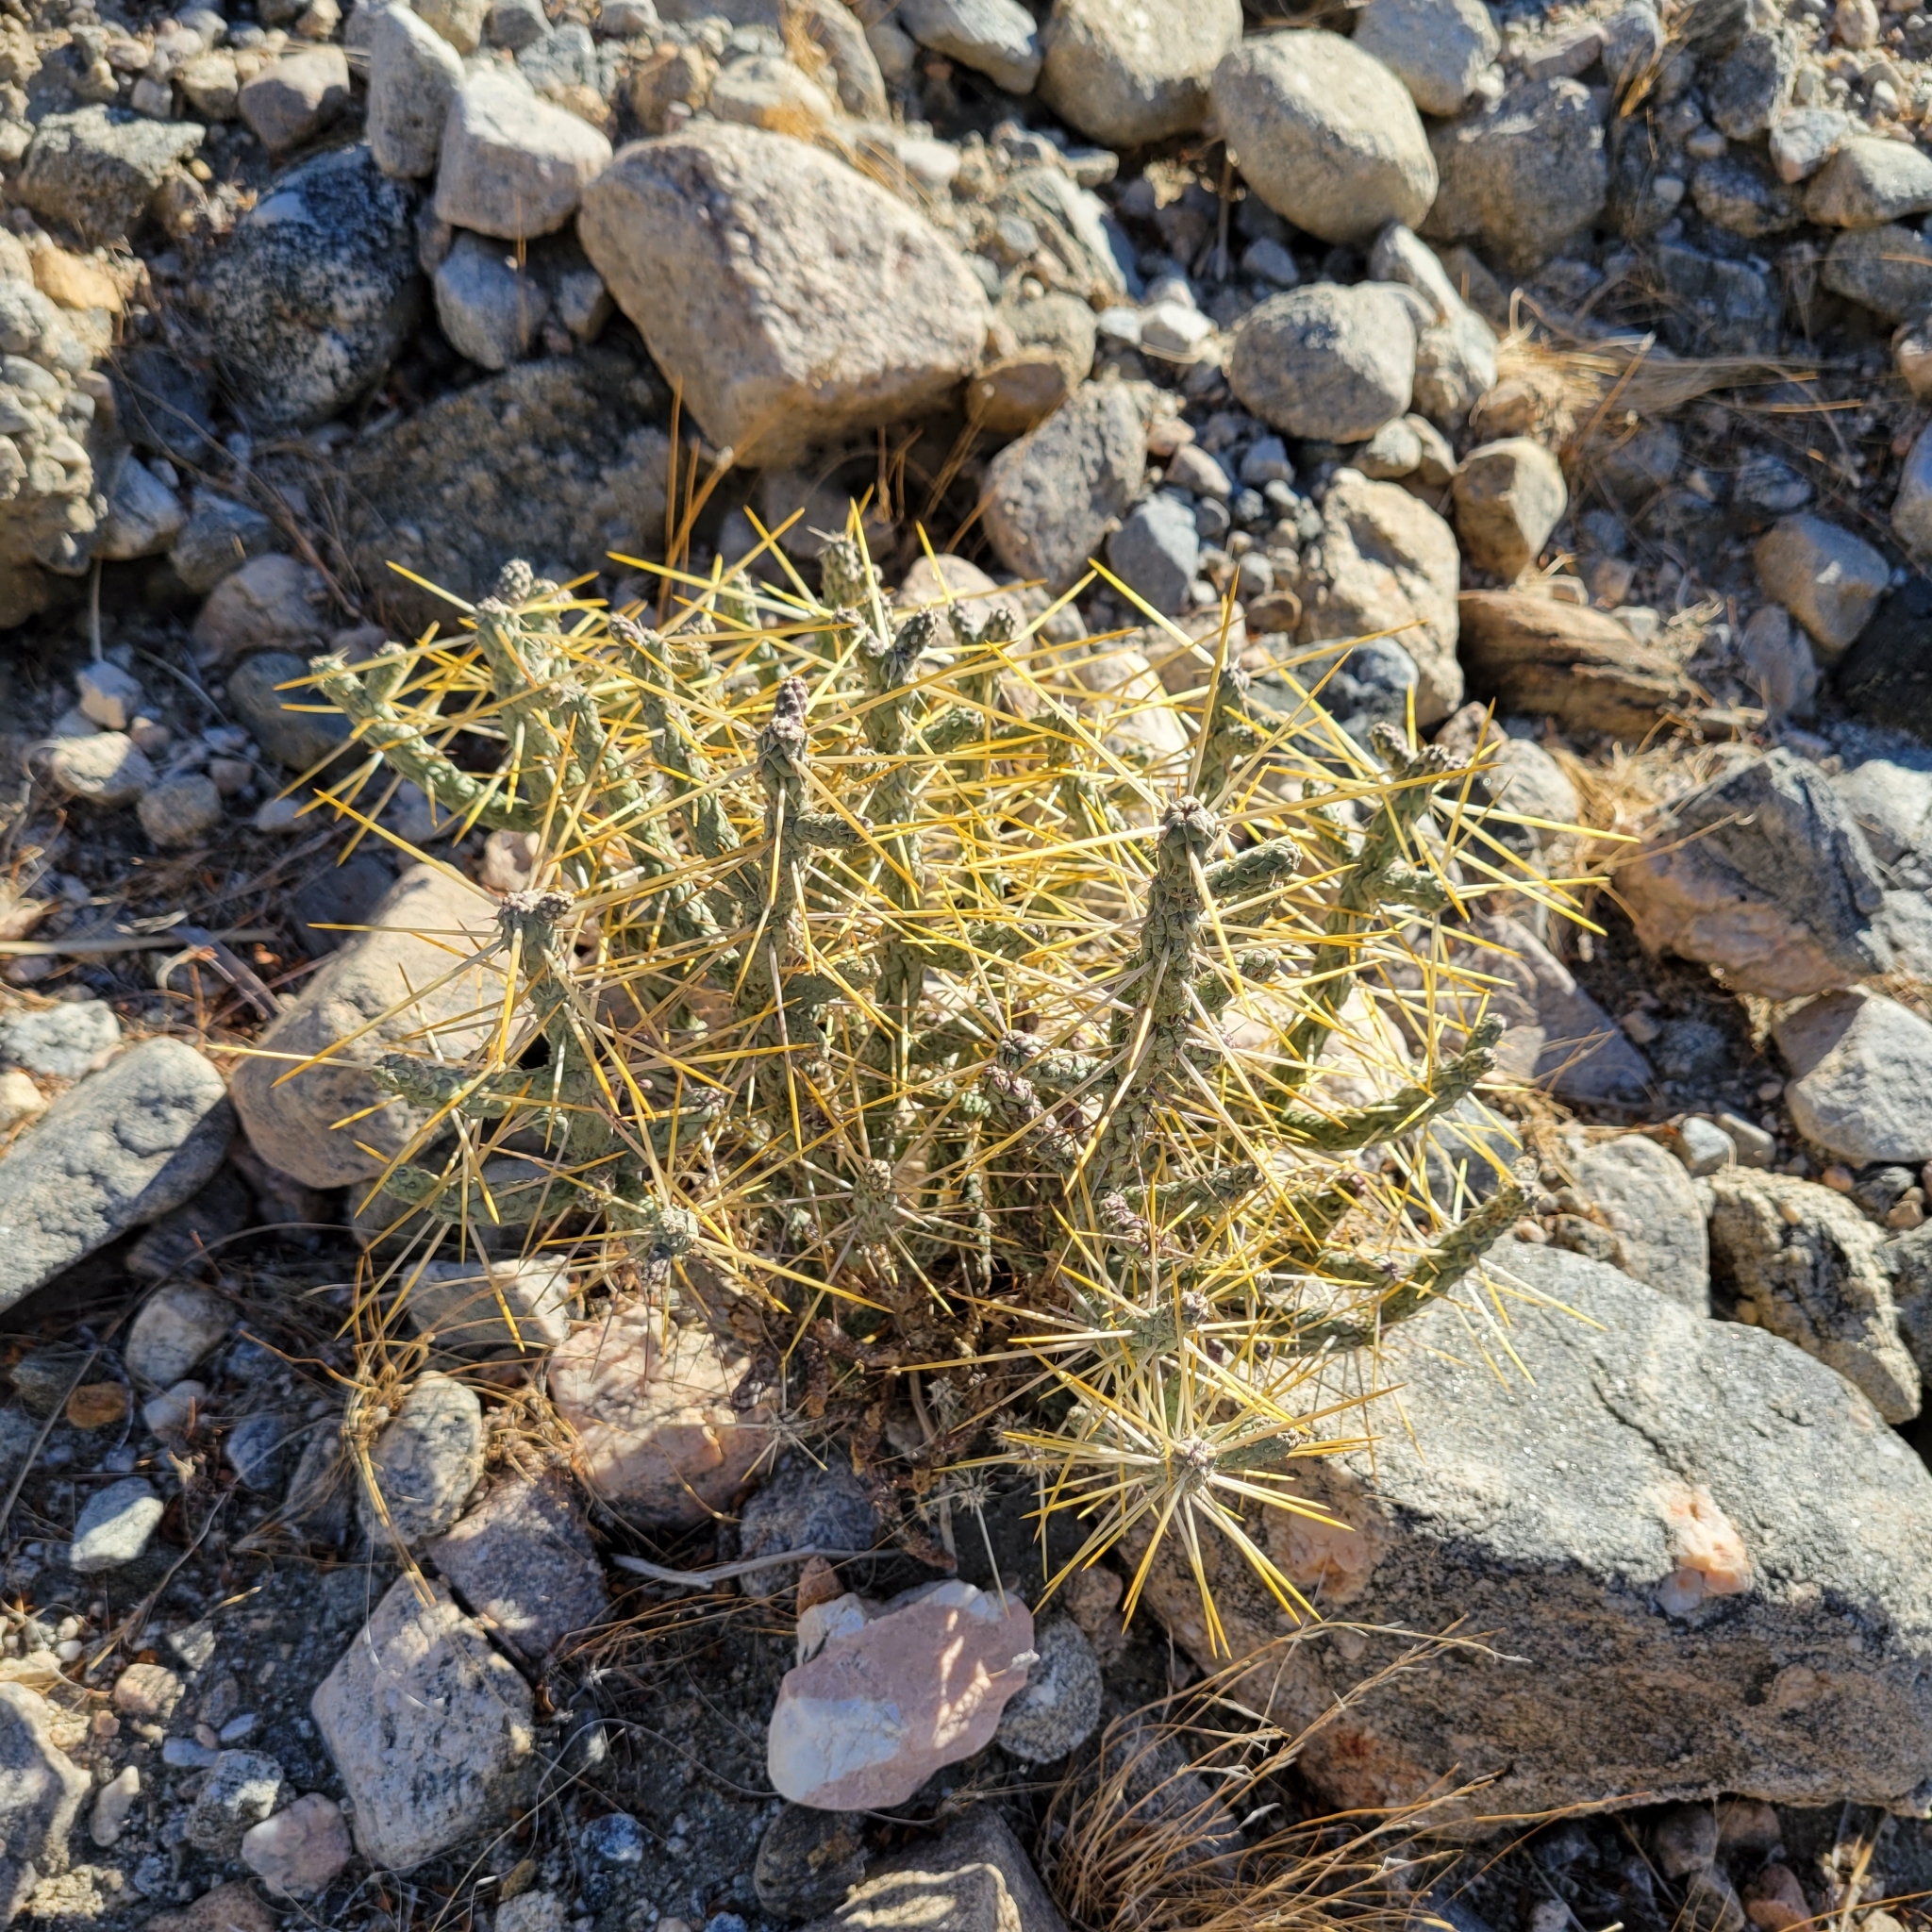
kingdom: Plantae
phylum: Tracheophyta
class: Magnoliopsida
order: Caryophyllales
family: Cactaceae
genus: Cylindropuntia
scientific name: Cylindropuntia ramosissima
